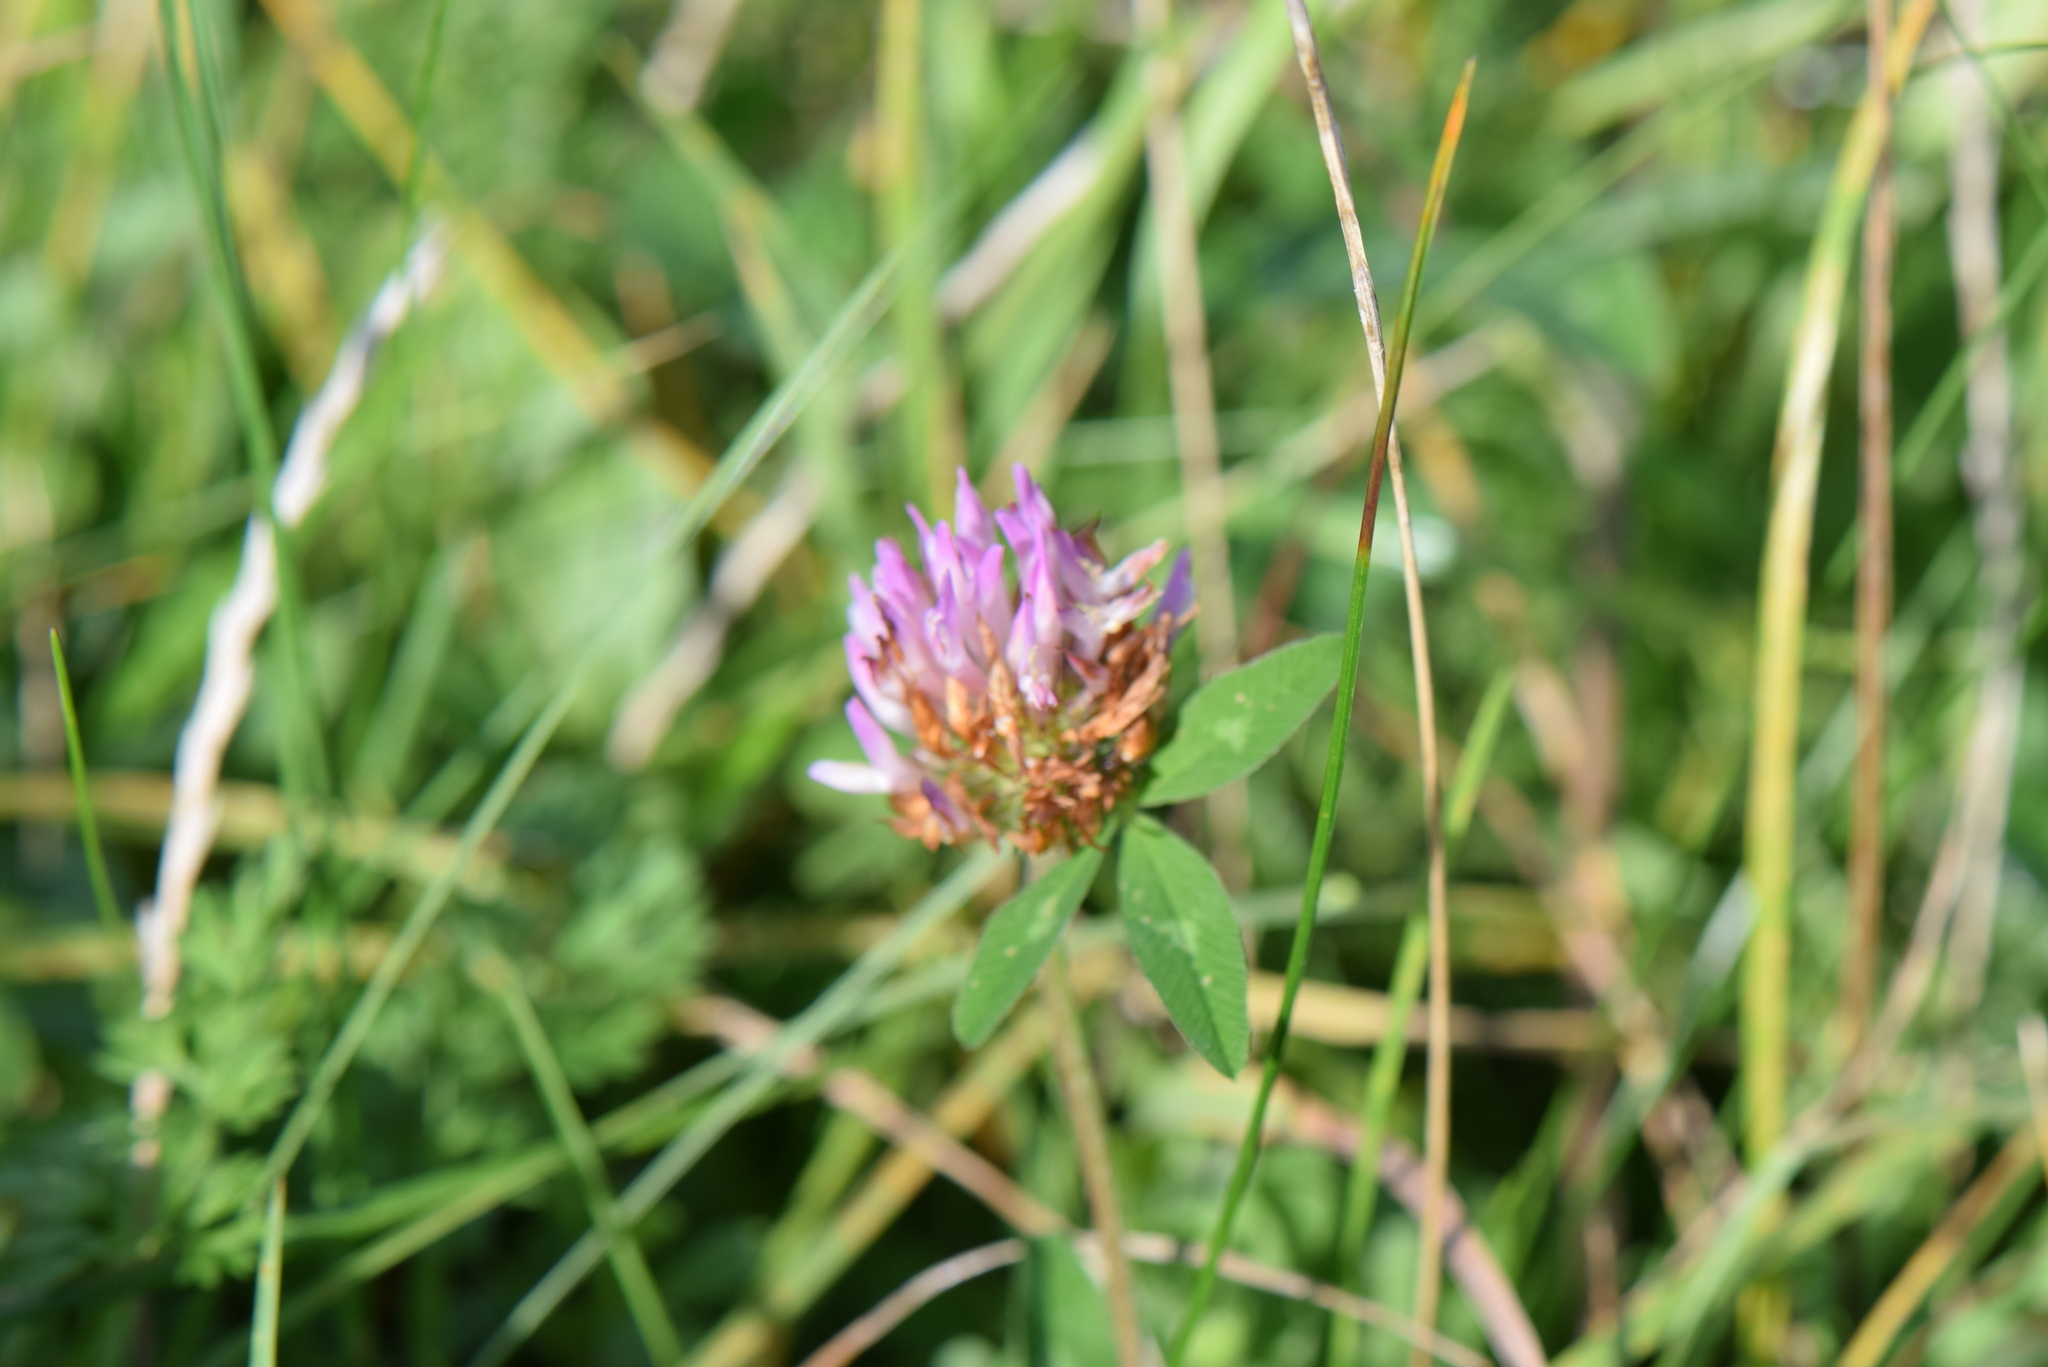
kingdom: Plantae
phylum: Tracheophyta
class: Magnoliopsida
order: Fabales
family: Fabaceae
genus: Trifolium
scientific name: Trifolium pratense
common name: Red clover
